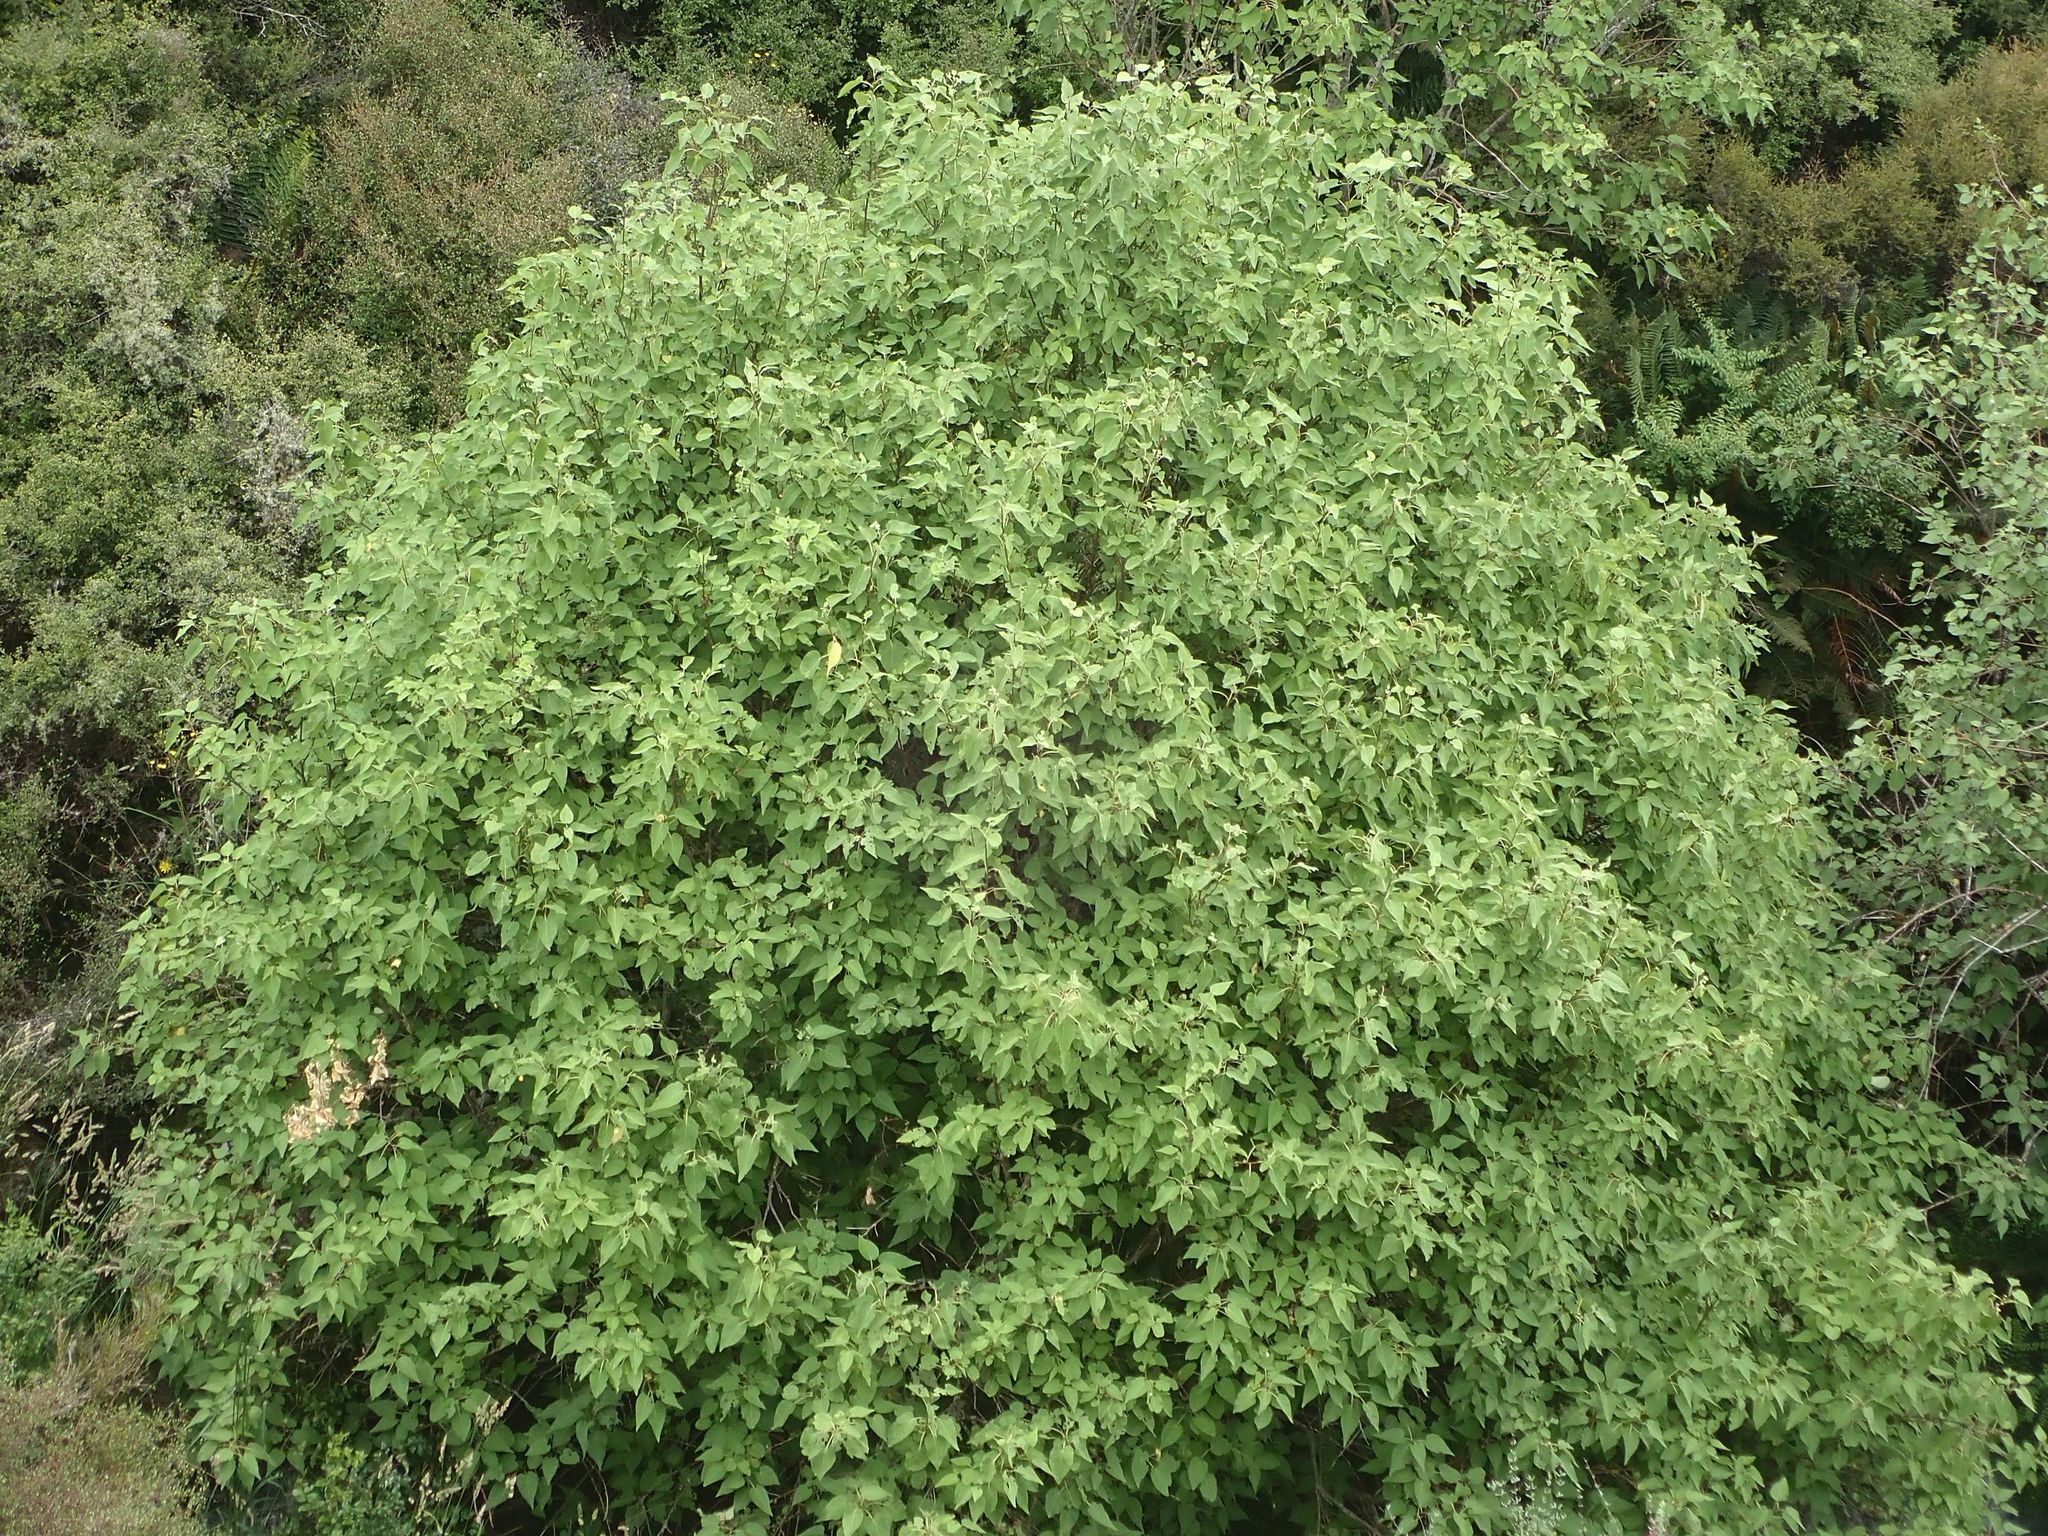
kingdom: Plantae
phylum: Tracheophyta
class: Magnoliopsida
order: Malvales
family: Malvaceae
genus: Hoheria
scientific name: Hoheria glabrata
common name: Mountain-ribbon
